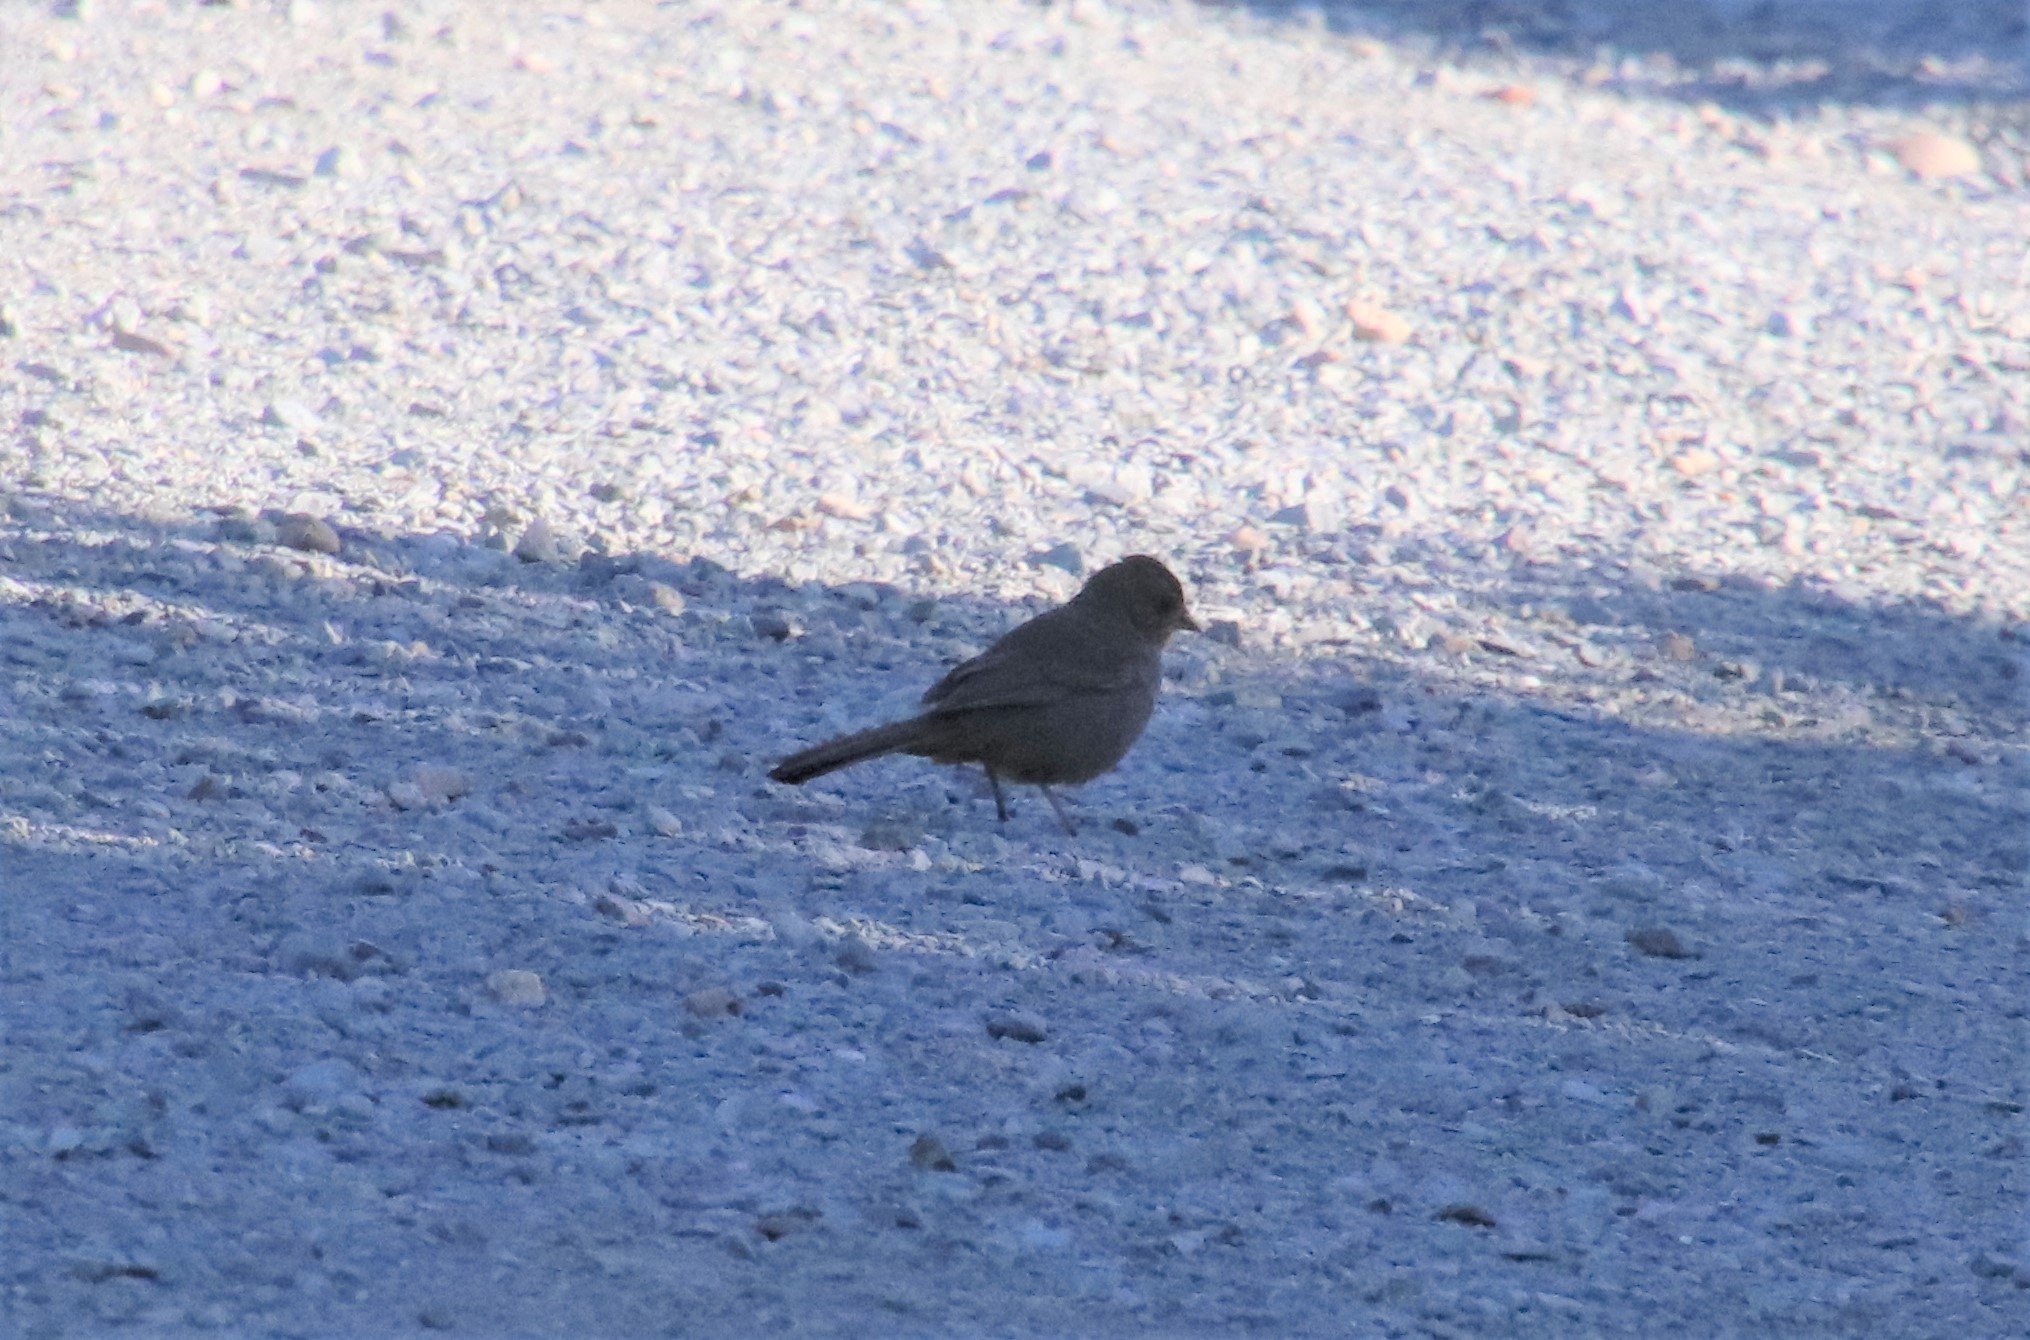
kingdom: Animalia
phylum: Chordata
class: Aves
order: Passeriformes
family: Passerellidae
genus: Melozone
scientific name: Melozone crissalis
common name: California towhee
